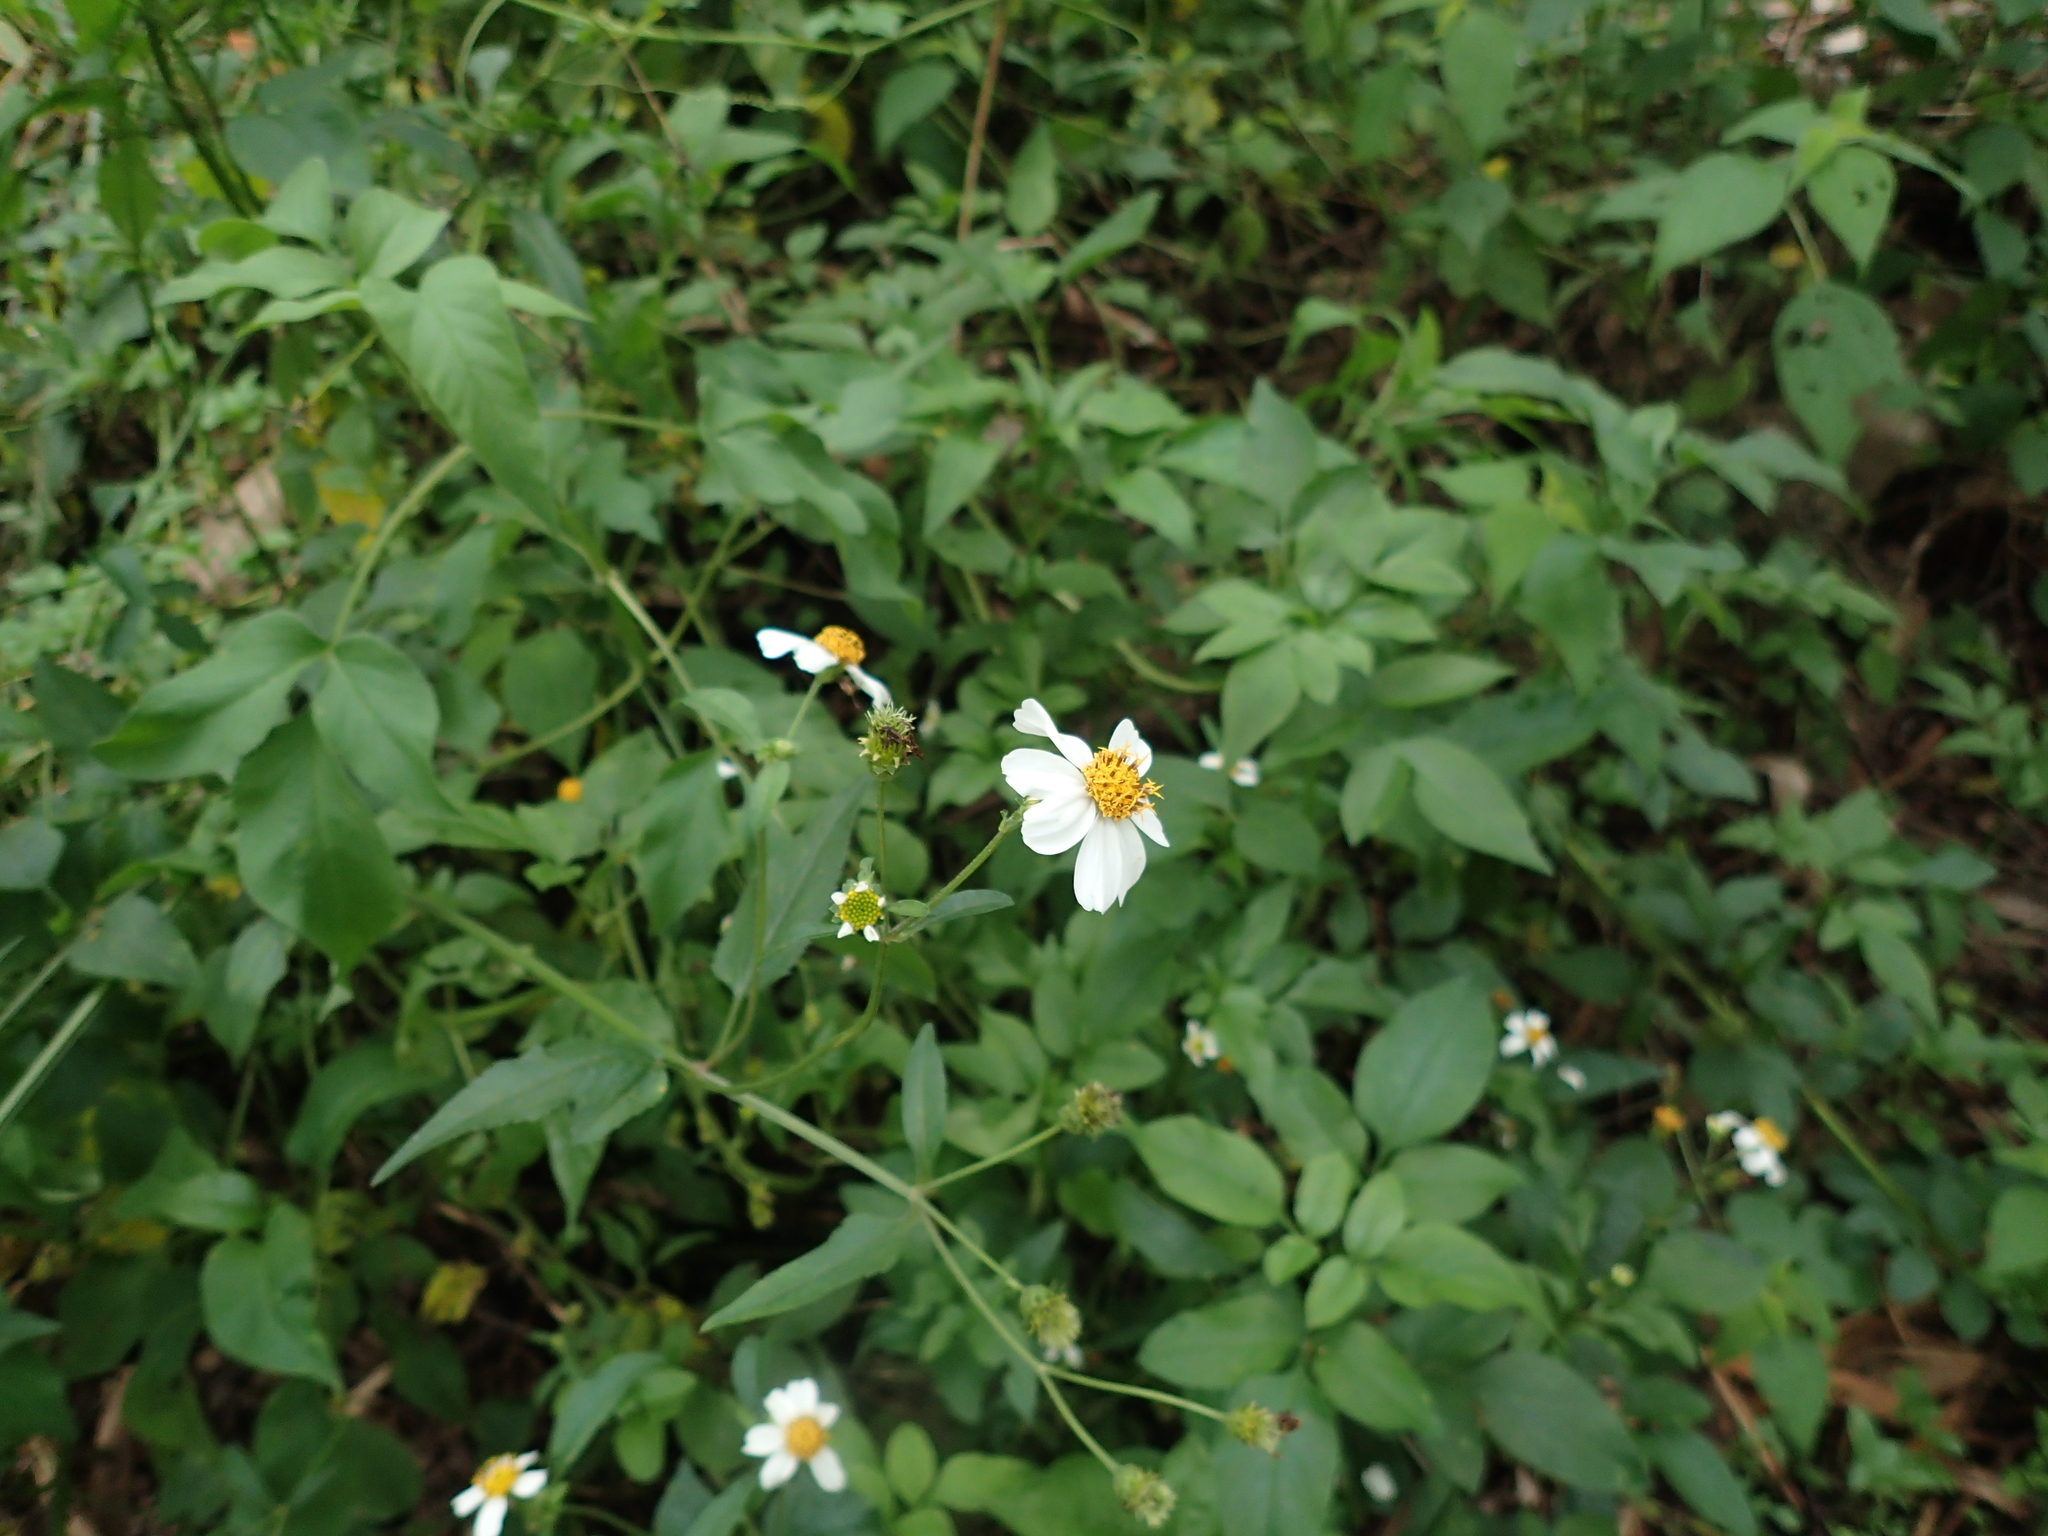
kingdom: Plantae
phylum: Tracheophyta
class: Magnoliopsida
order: Asterales
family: Asteraceae
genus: Bidens
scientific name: Bidens alba
